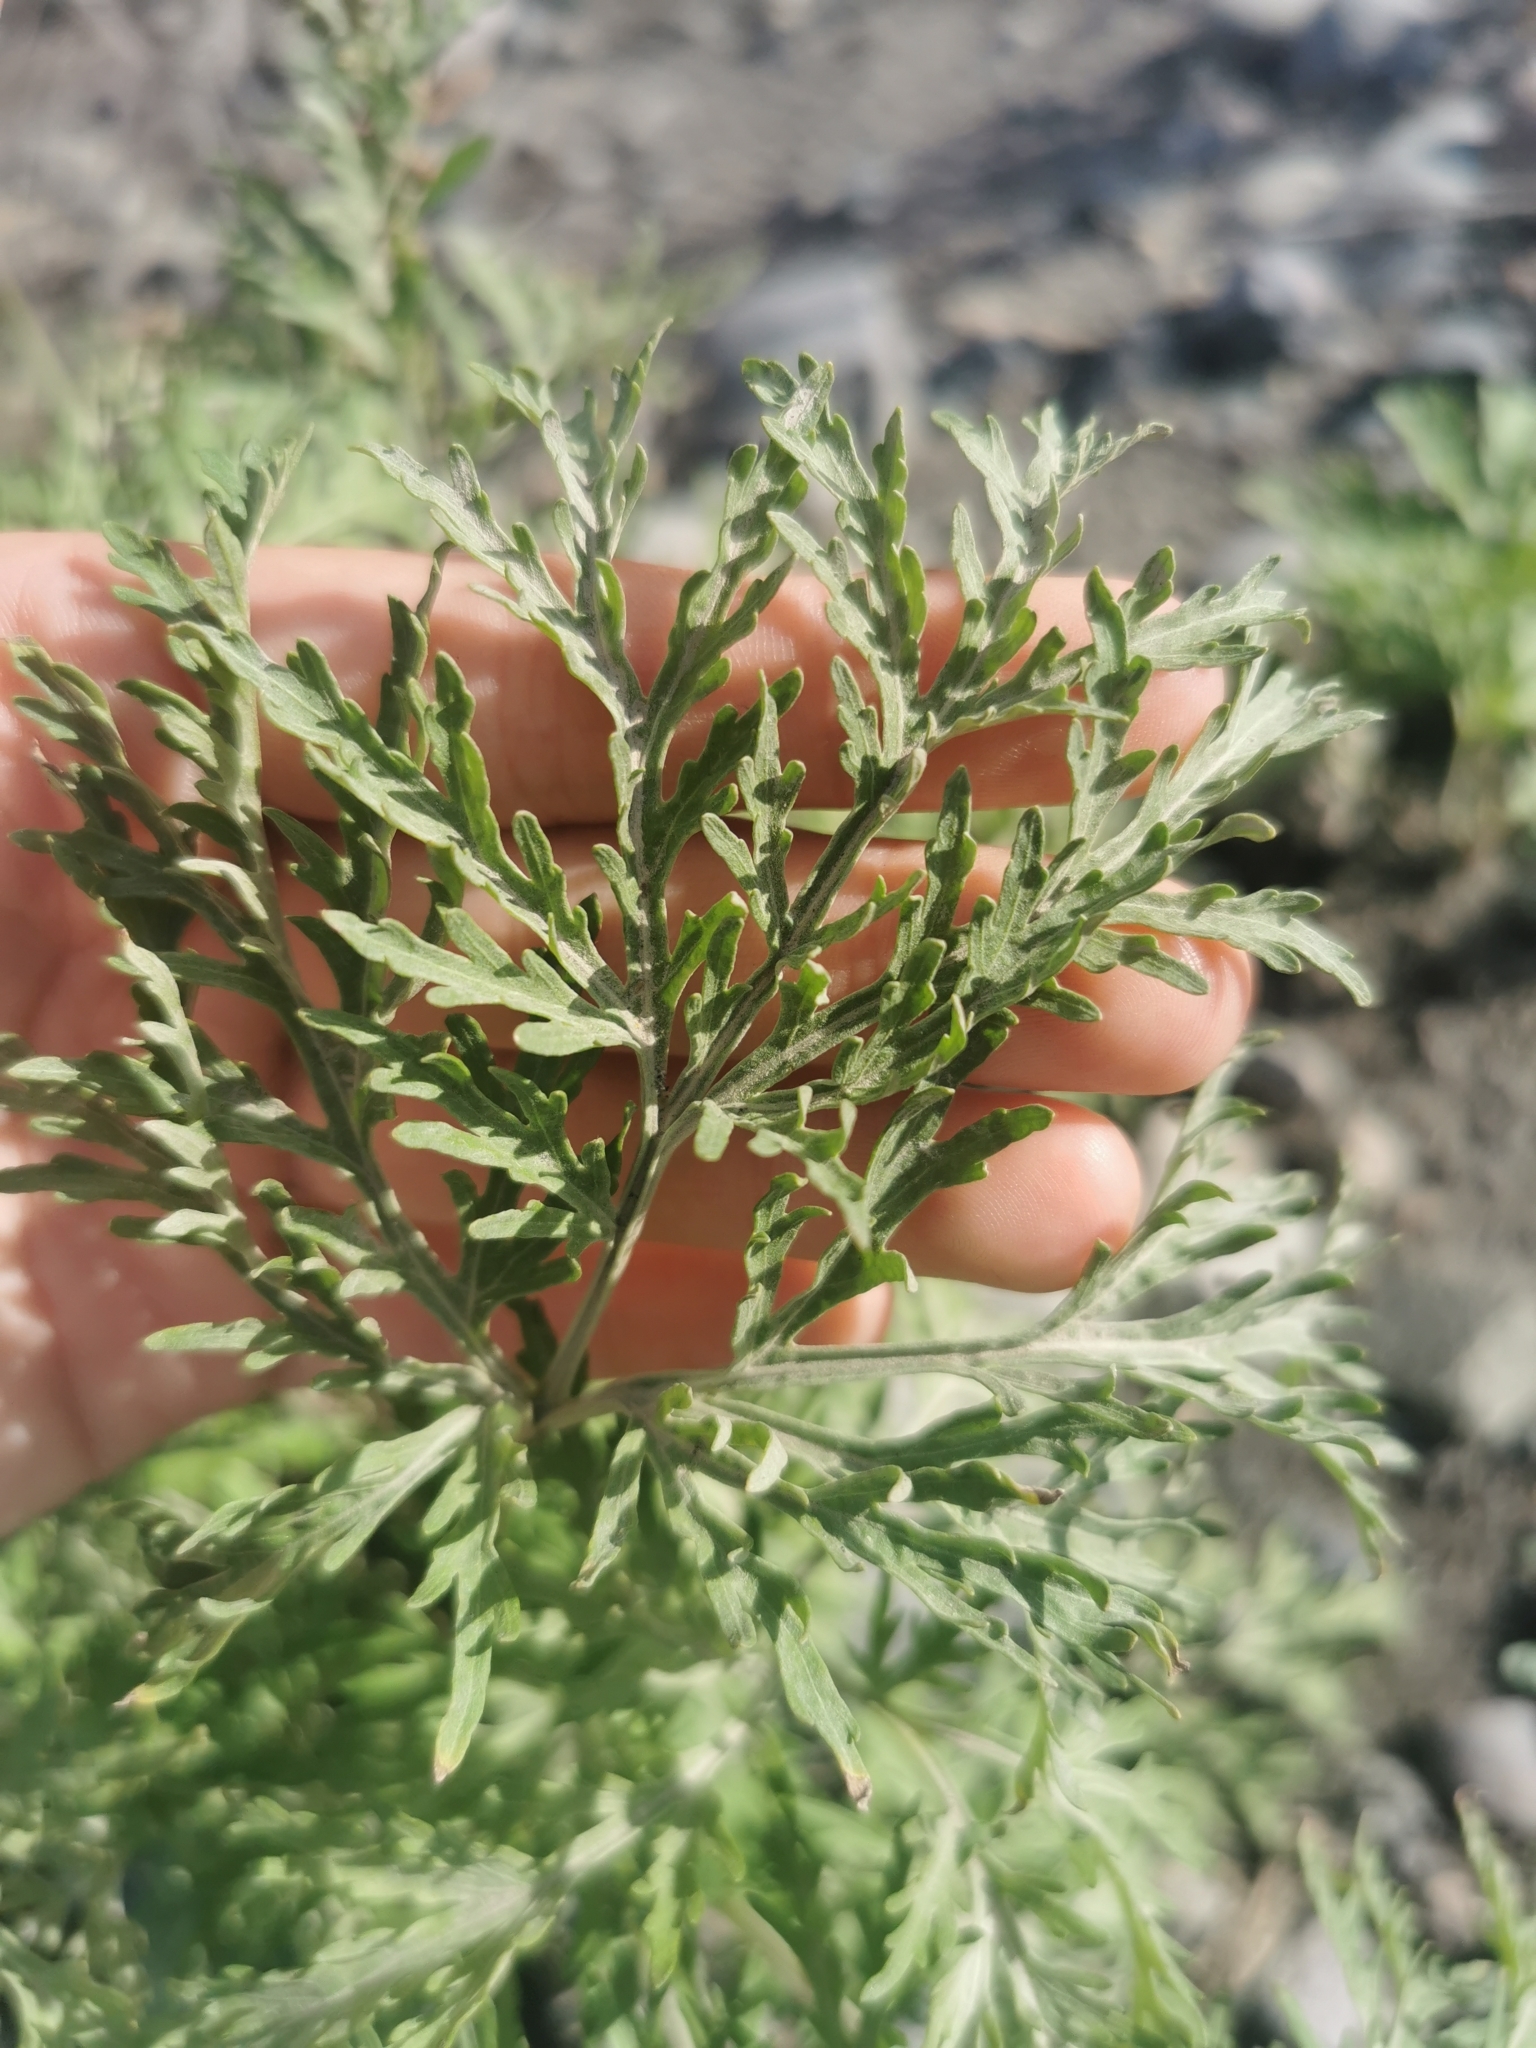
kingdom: Plantae
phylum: Tracheophyta
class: Magnoliopsida
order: Asterales
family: Asteraceae
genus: Artemisia
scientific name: Artemisia sieversiana
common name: Sieversian wormwood
